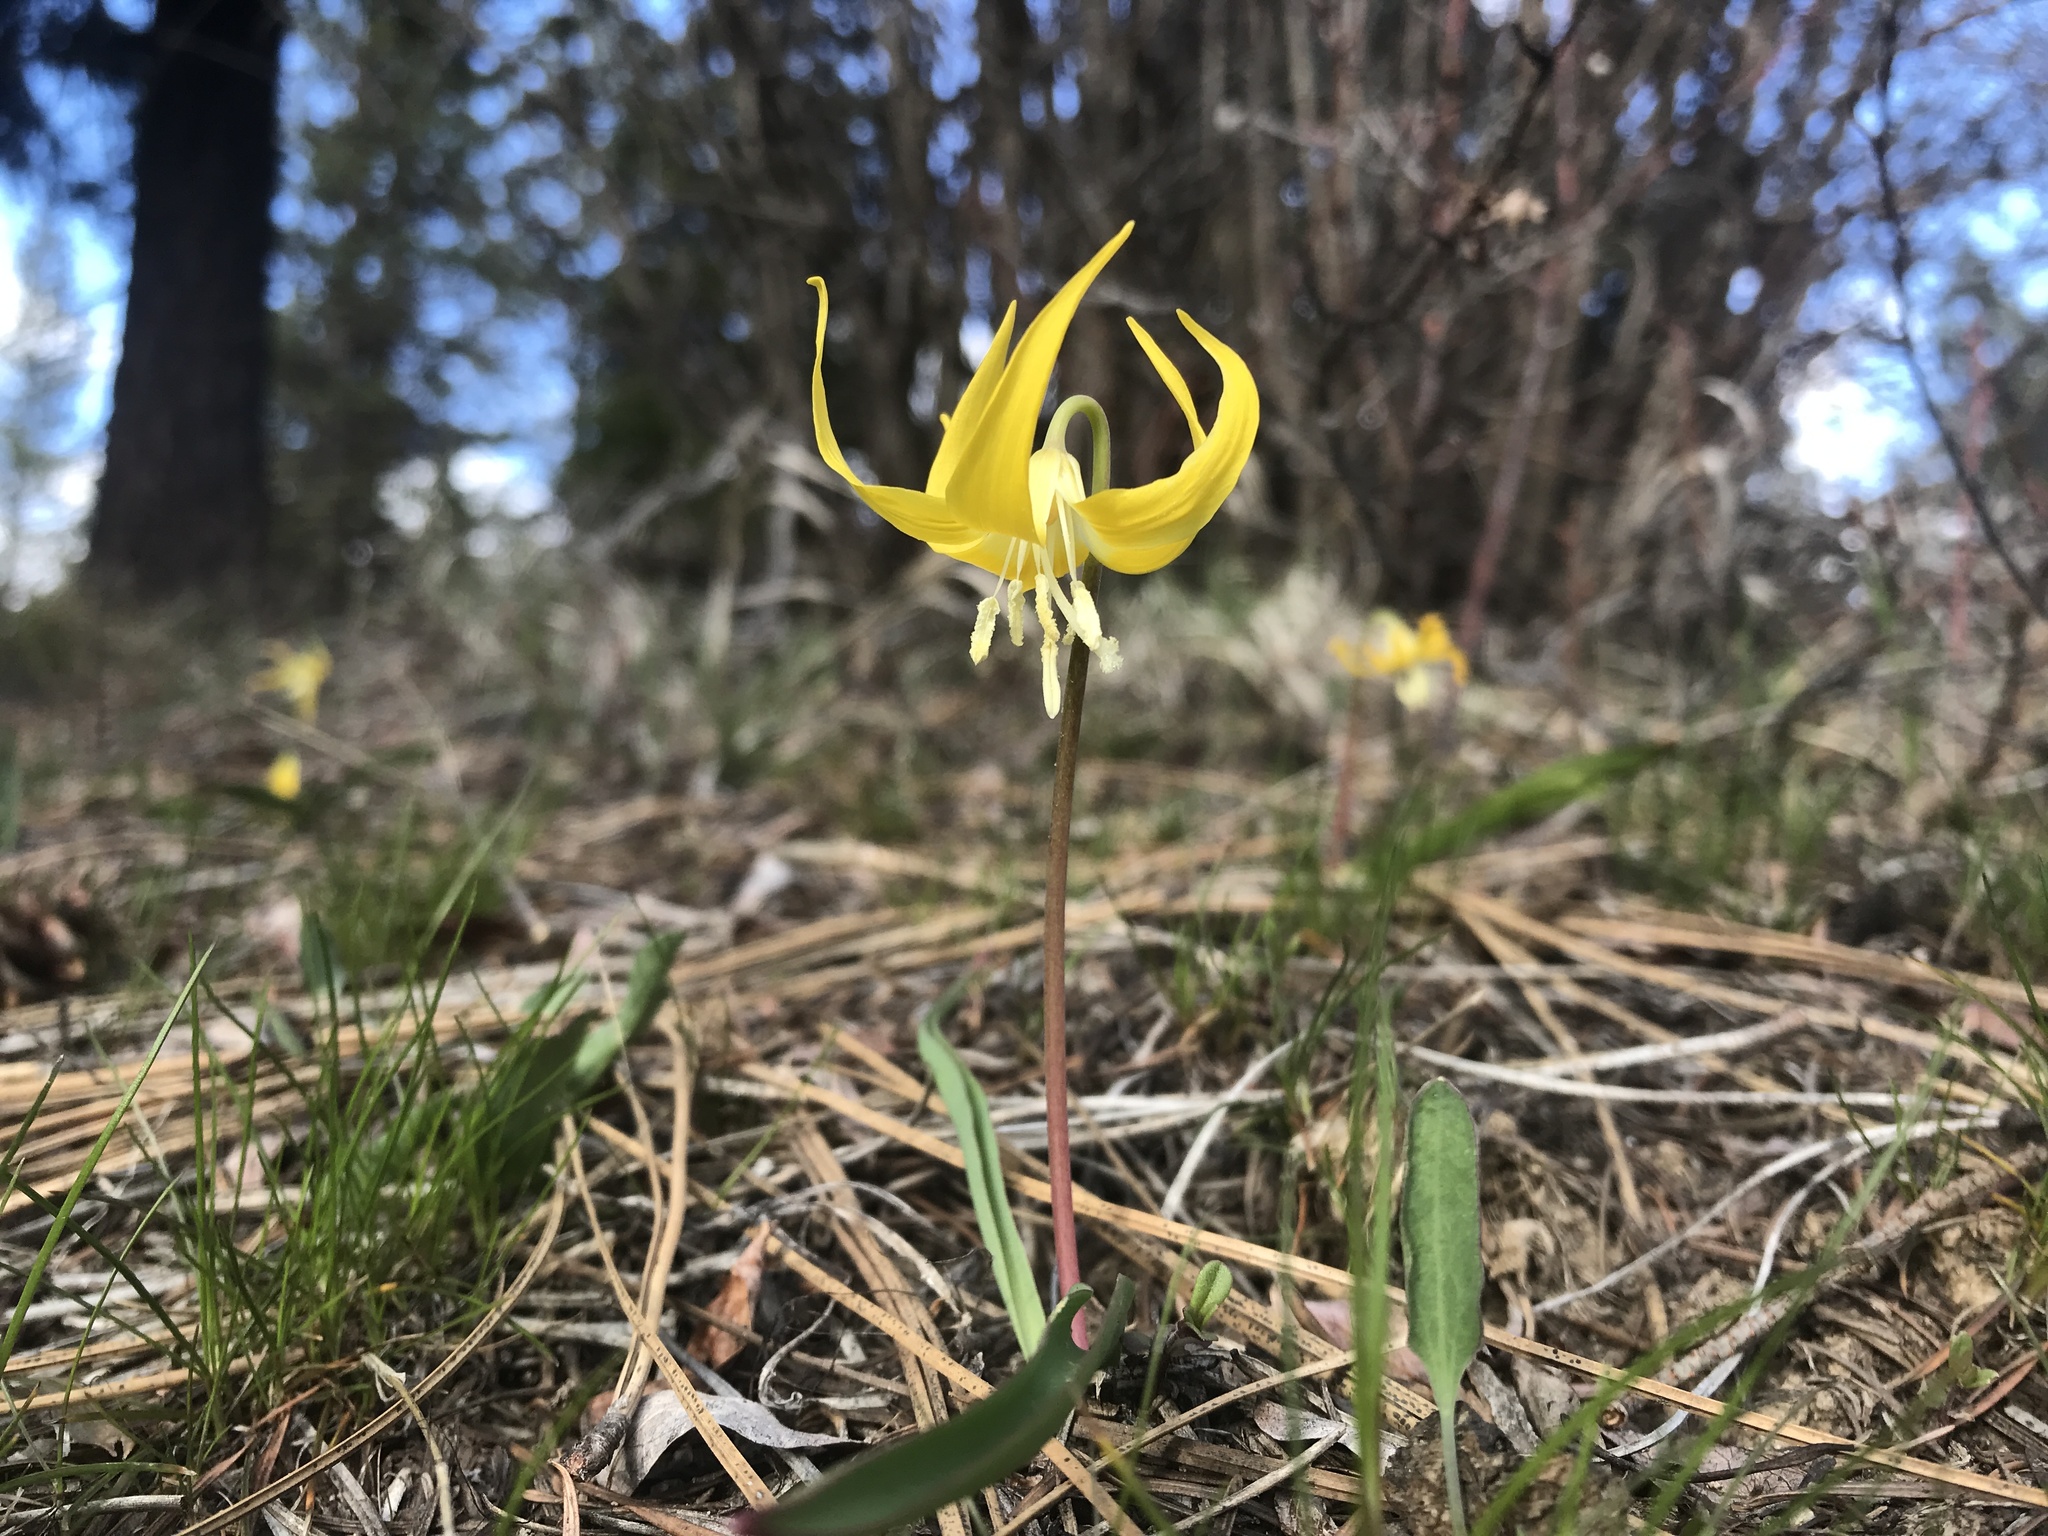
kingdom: Plantae
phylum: Tracheophyta
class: Liliopsida
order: Liliales
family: Liliaceae
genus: Erythronium
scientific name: Erythronium grandiflorum
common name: Avalanche-lily
